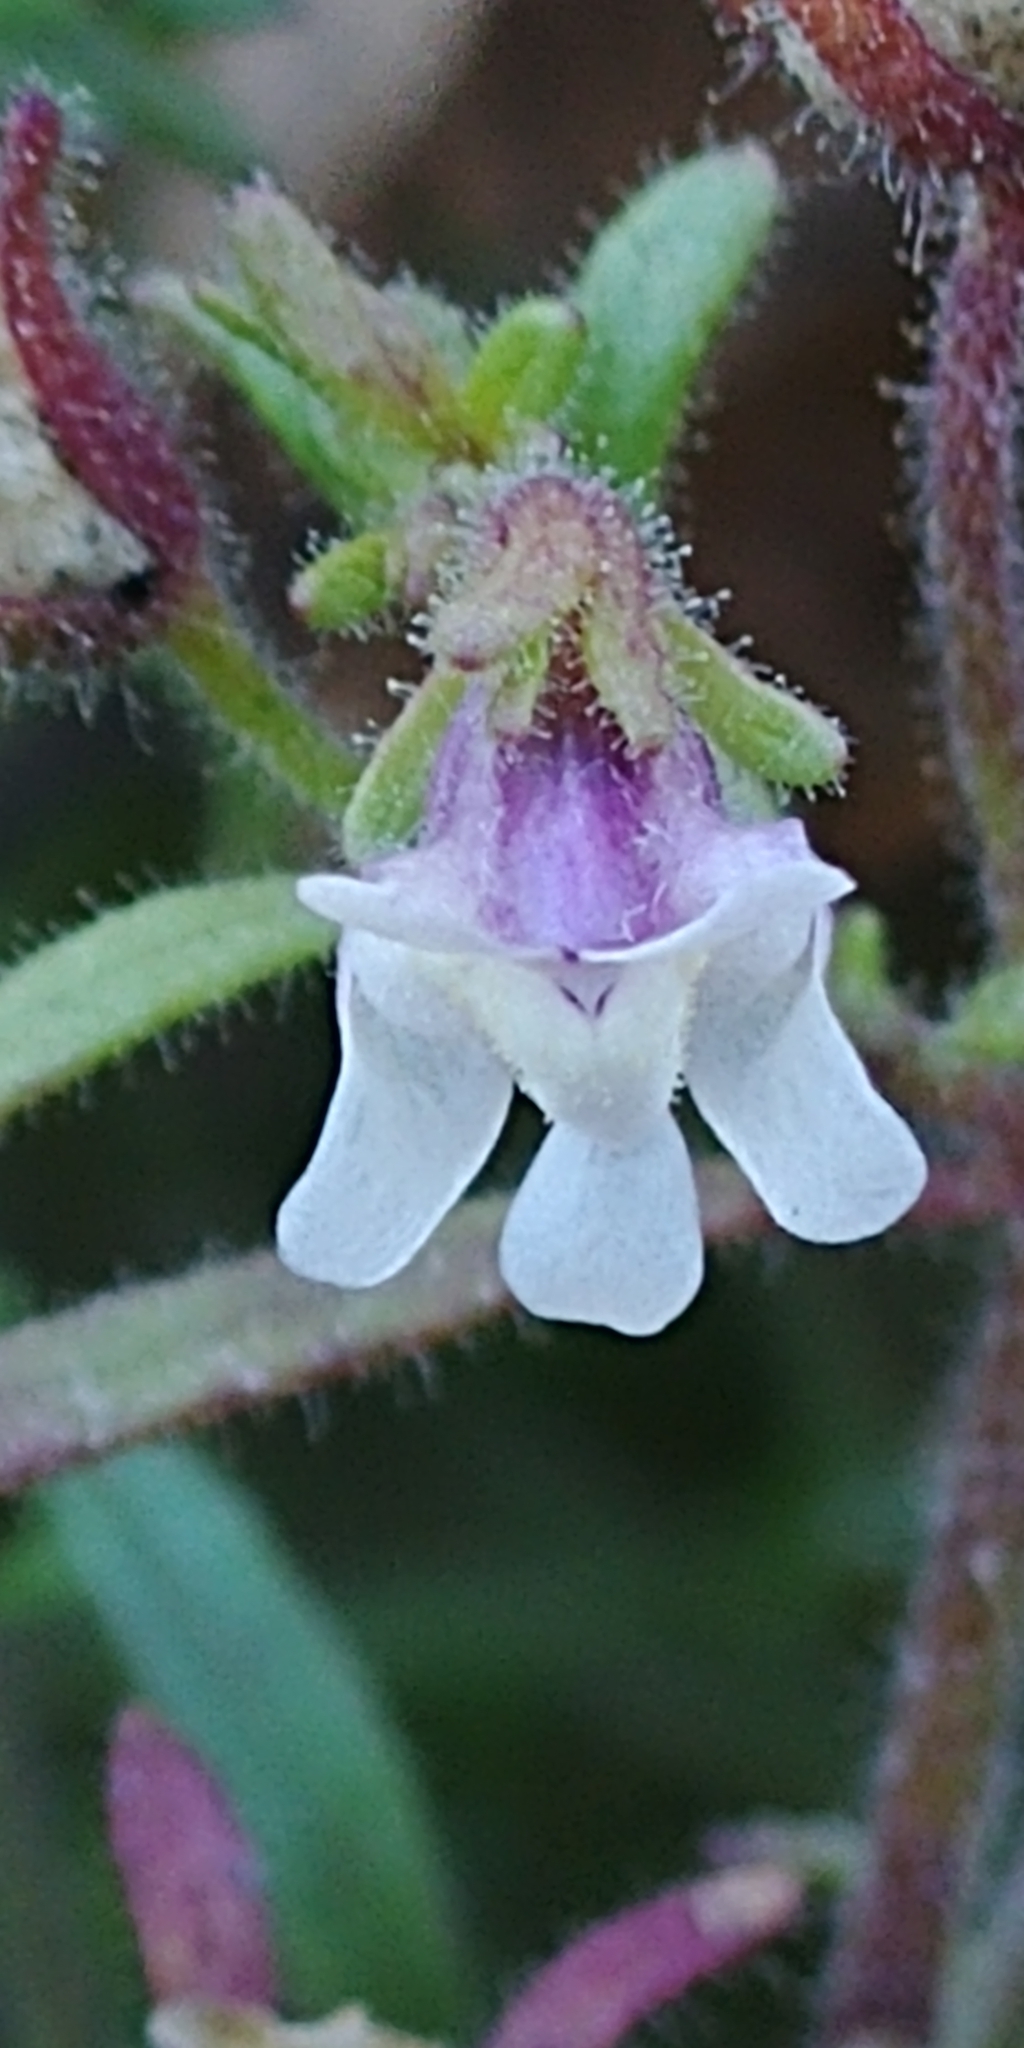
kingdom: Plantae
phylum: Tracheophyta
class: Magnoliopsida
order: Lamiales
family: Plantaginaceae
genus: Chaenorhinum
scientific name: Chaenorhinum minus
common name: Dwarf snapdragon
